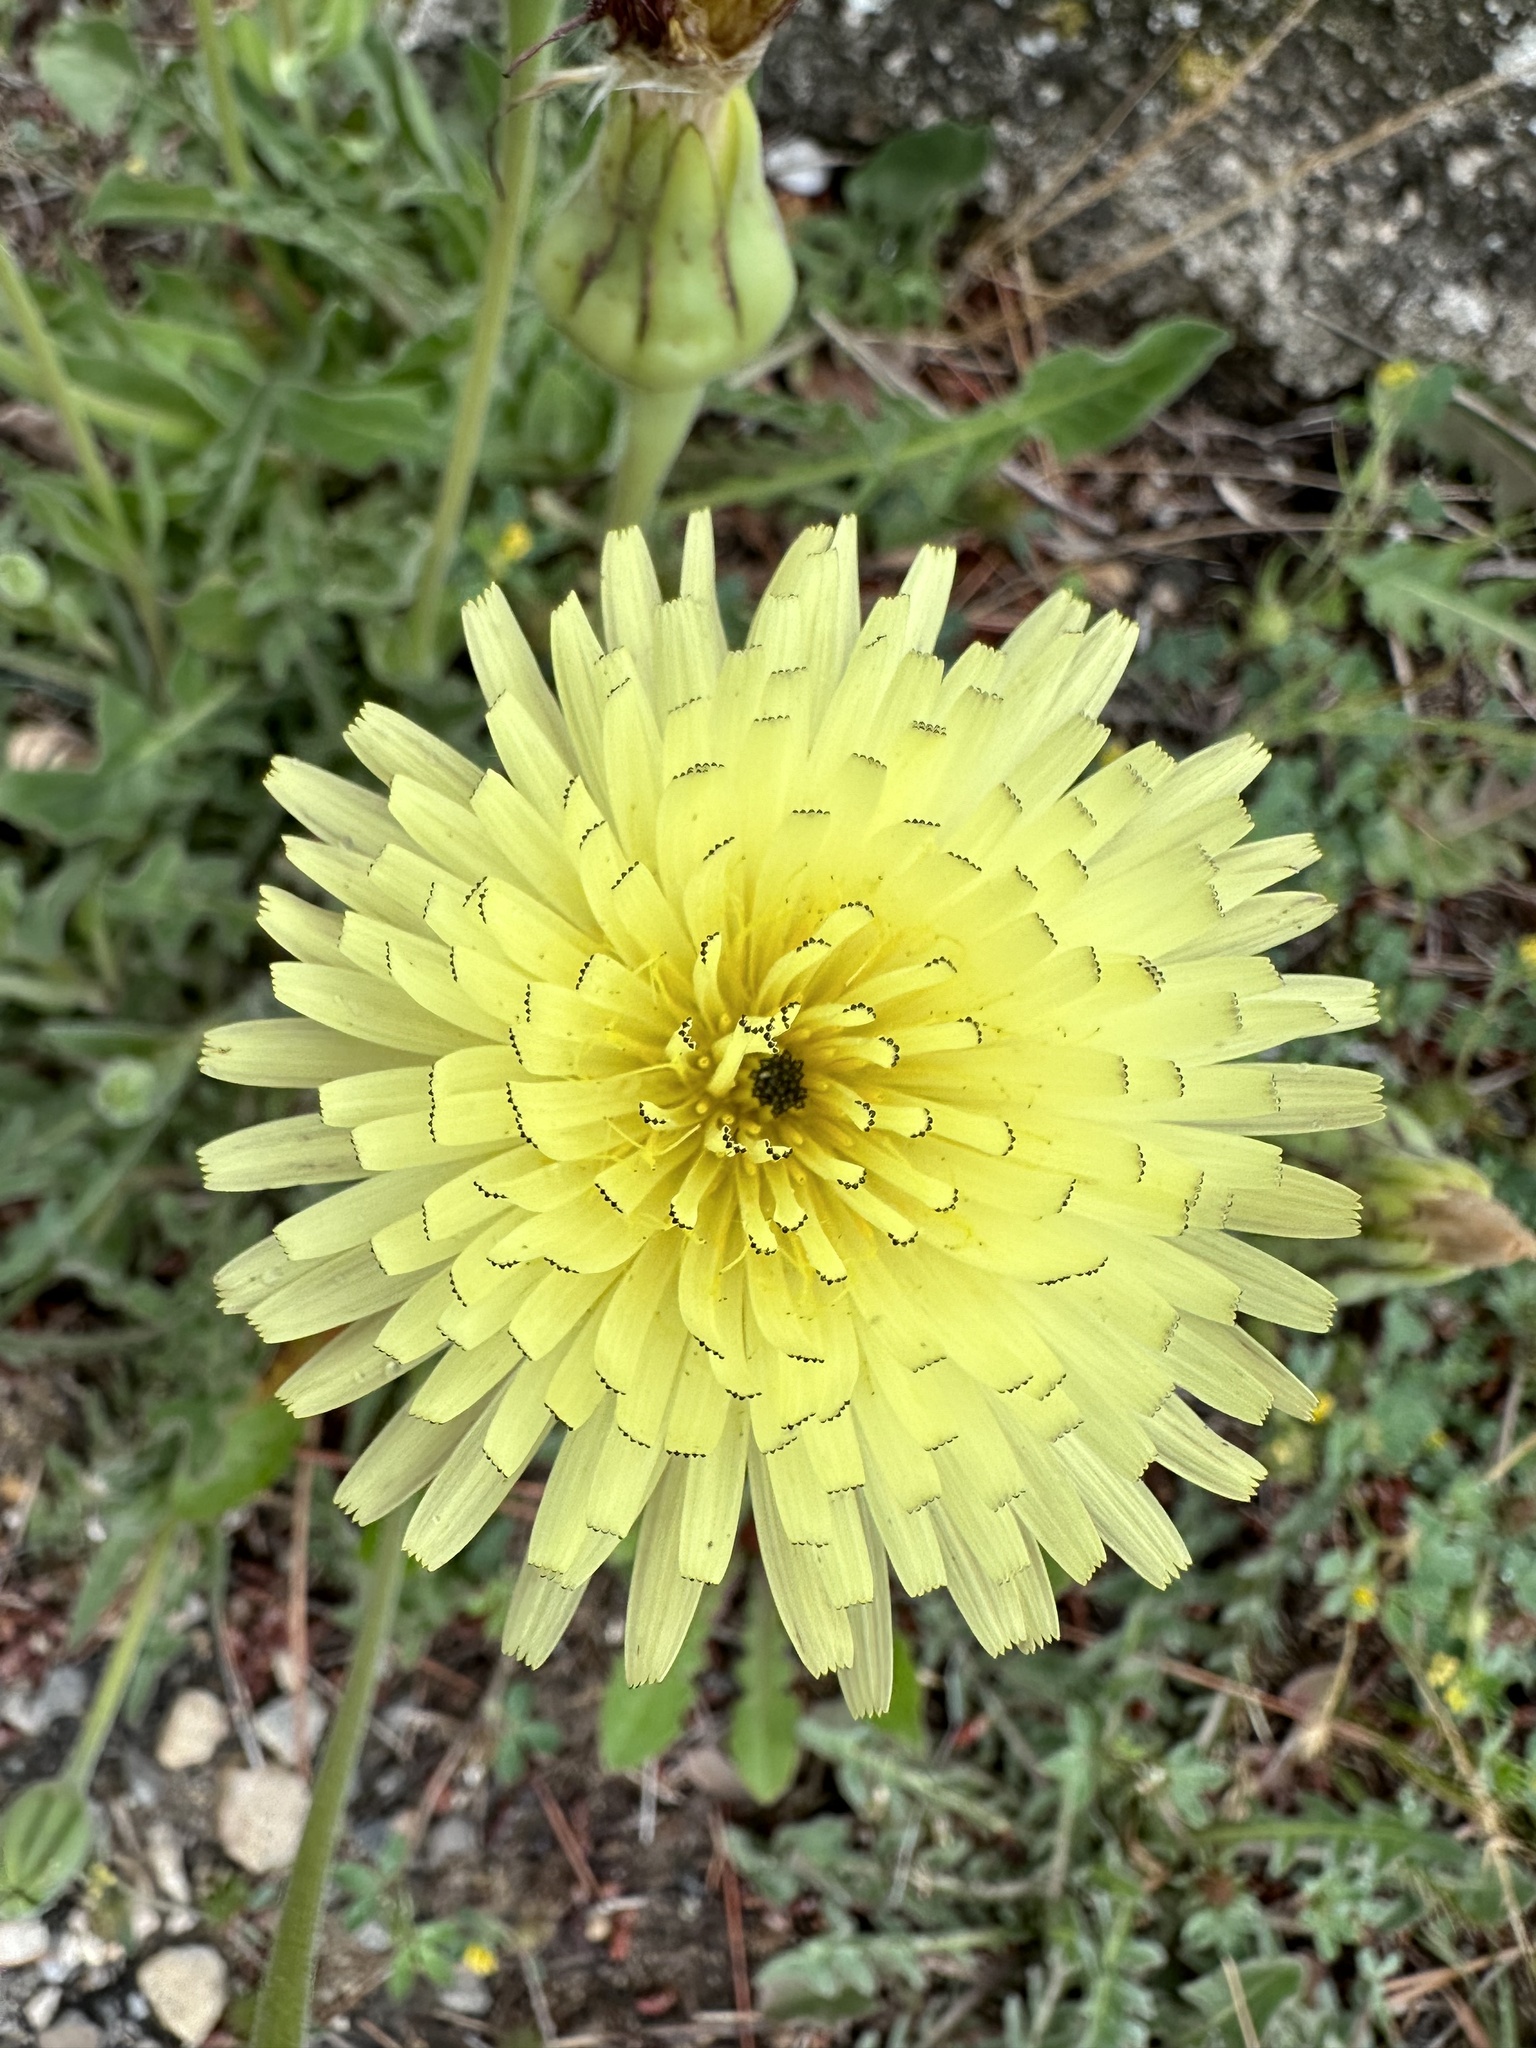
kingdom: Plantae
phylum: Tracheophyta
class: Magnoliopsida
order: Asterales
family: Asteraceae
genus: Urospermum
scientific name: Urospermum dalechampii
